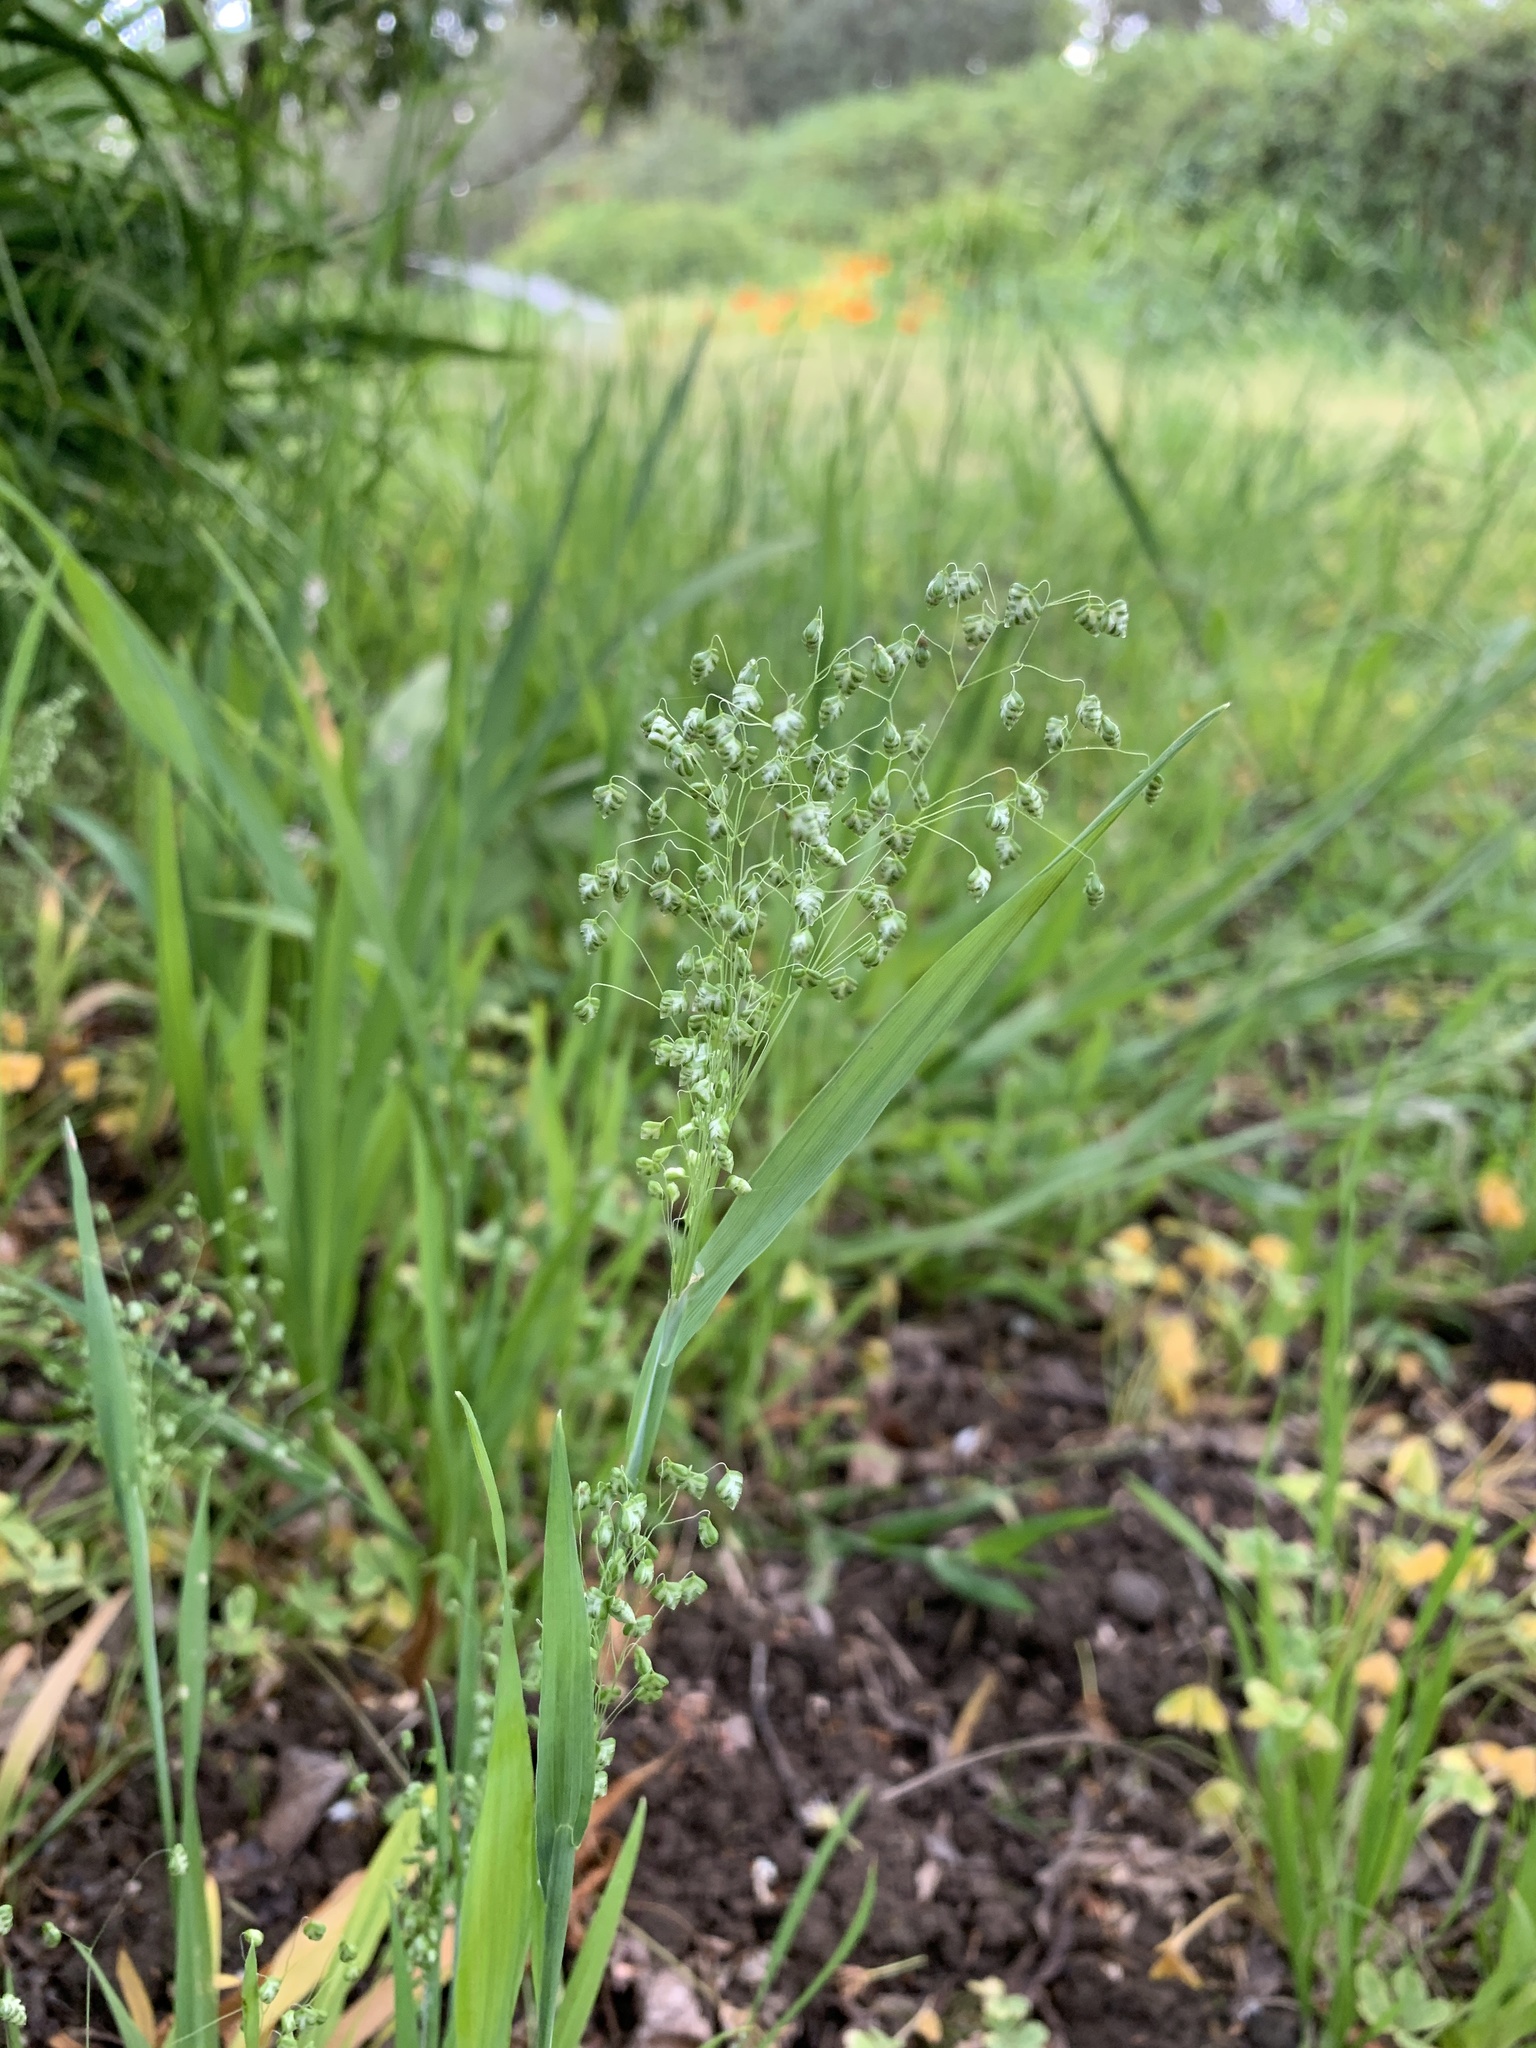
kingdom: Plantae
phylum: Tracheophyta
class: Liliopsida
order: Poales
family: Poaceae
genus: Briza
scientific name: Briza minor
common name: Lesser quaking-grass
